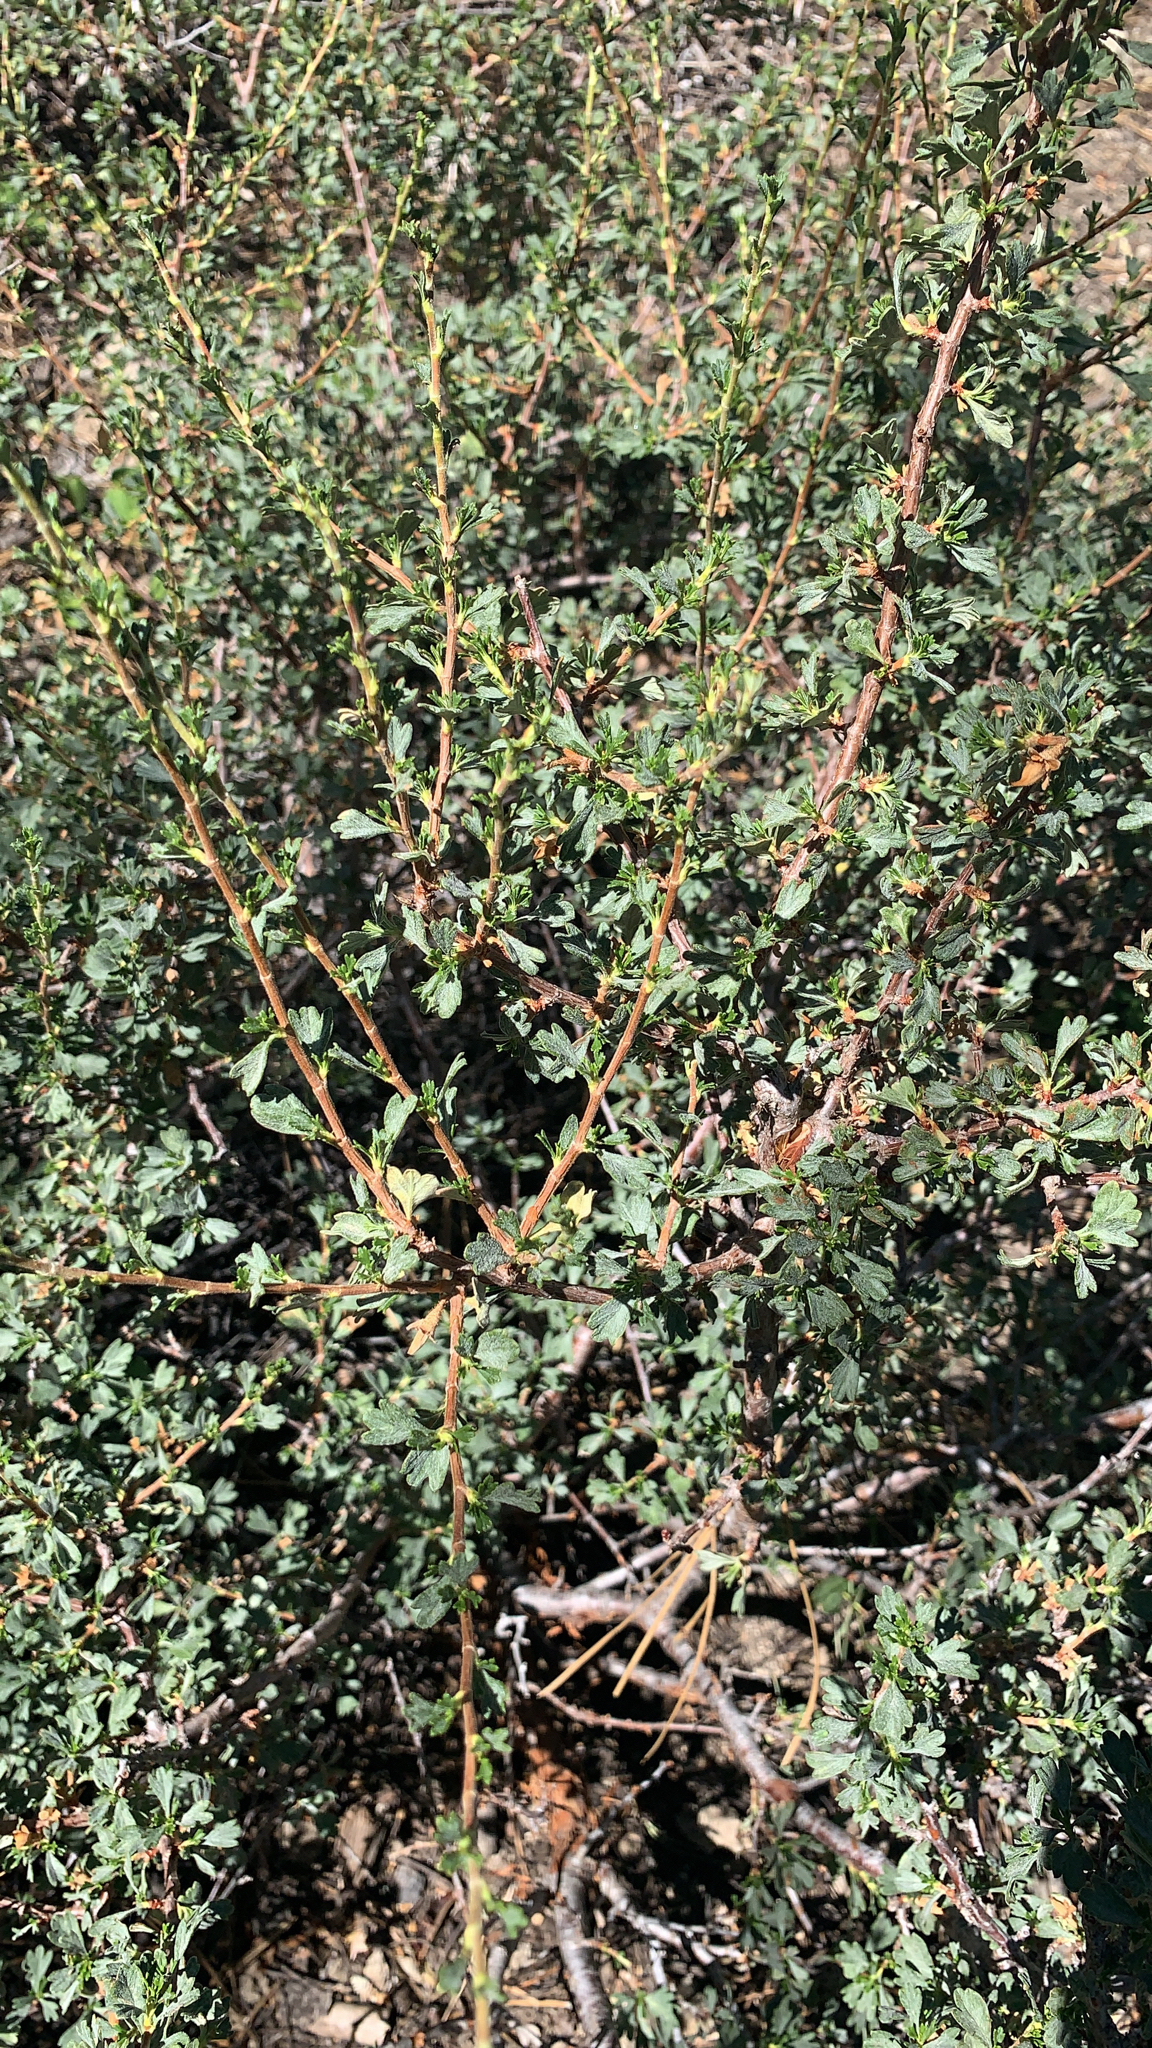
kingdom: Plantae
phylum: Tracheophyta
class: Magnoliopsida
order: Rosales
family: Rosaceae
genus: Purshia
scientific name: Purshia tridentata
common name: Antelope bitterbrush
